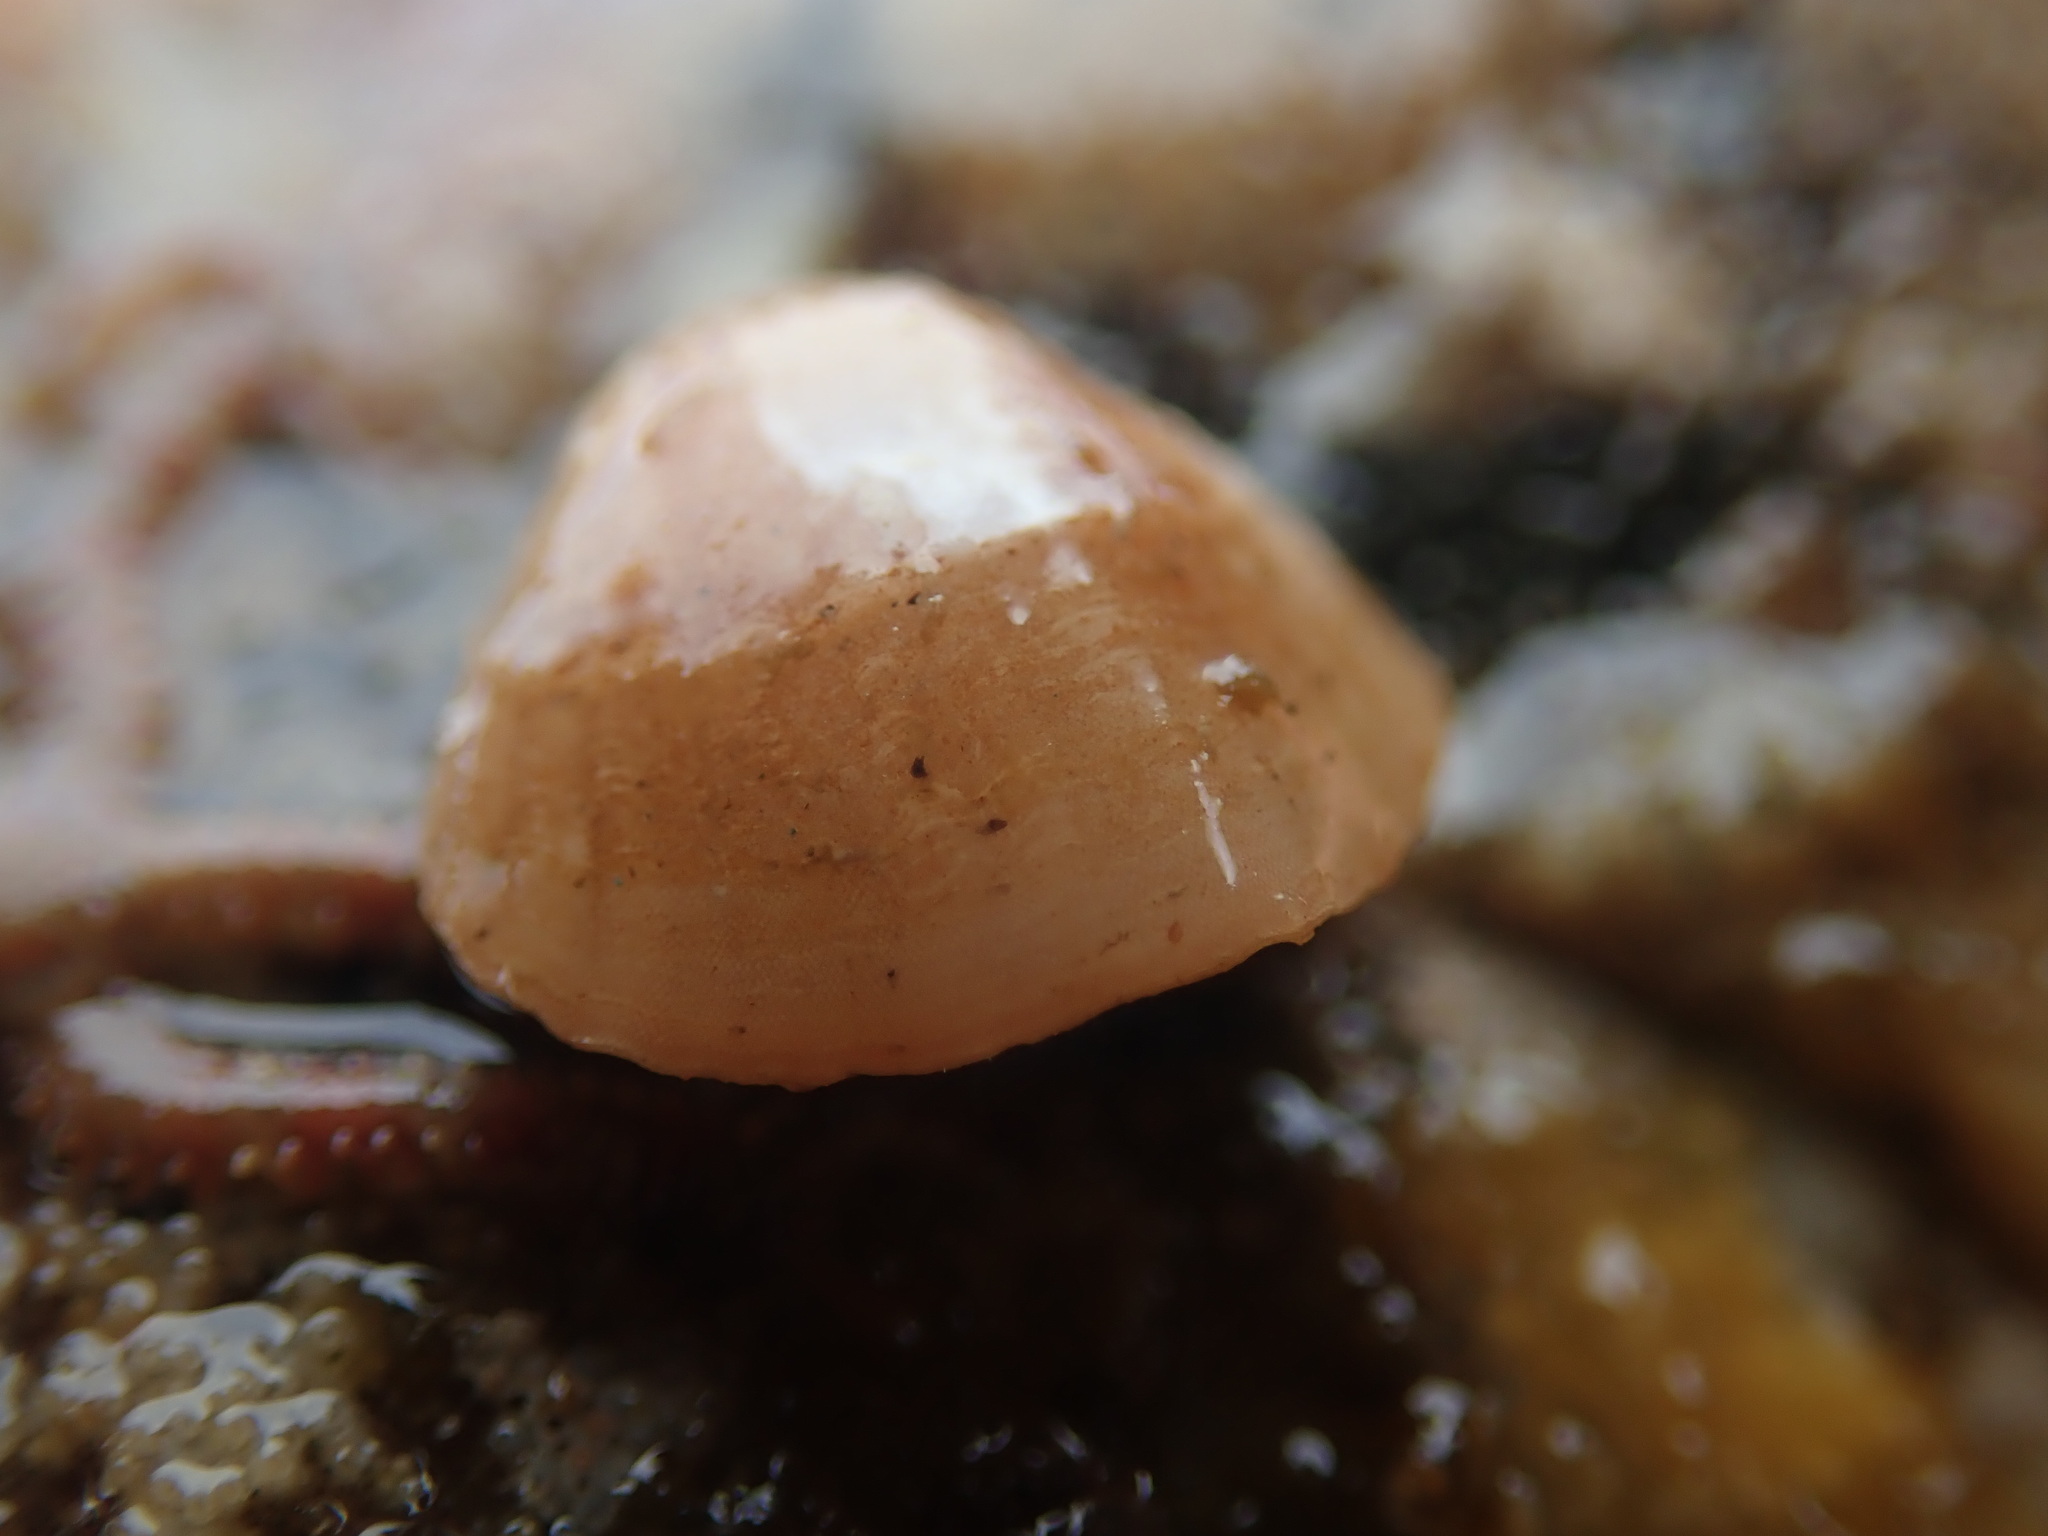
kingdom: Animalia
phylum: Brachiopoda
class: Rhynchonellata
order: Terebratulida
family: Terebrataliidae
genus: Terebratalia
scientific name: Terebratalia transversa
